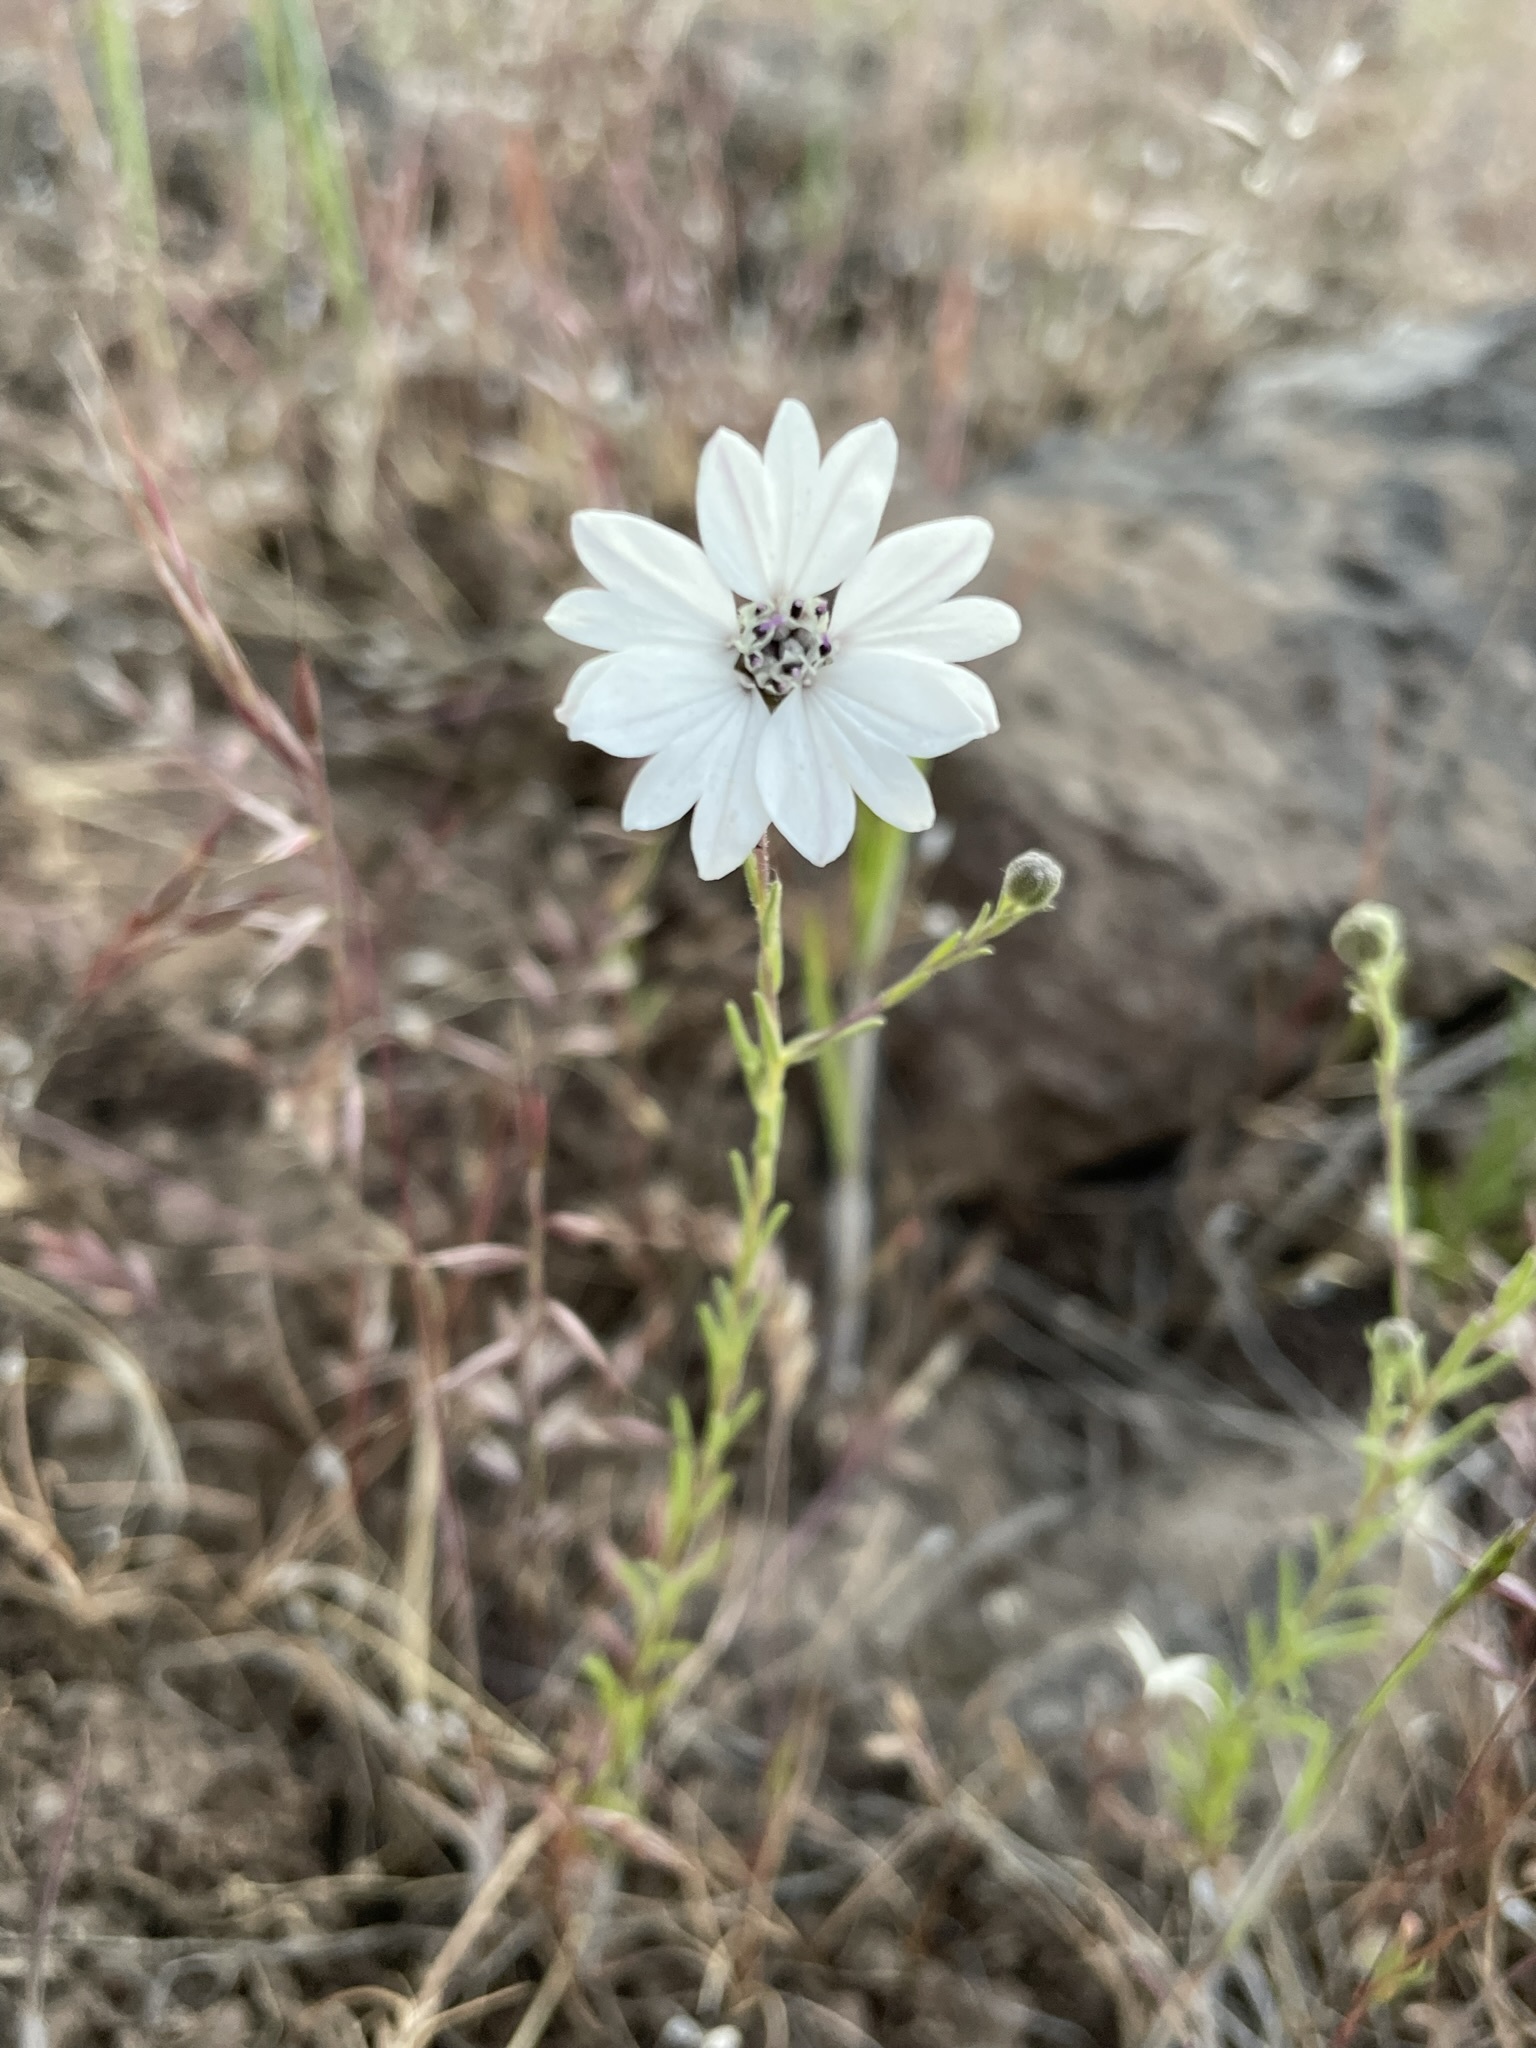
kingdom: Plantae
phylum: Tracheophyta
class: Magnoliopsida
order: Asterales
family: Asteraceae
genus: Blepharipappus
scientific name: Blepharipappus scaber
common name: Rough blepharipappus
